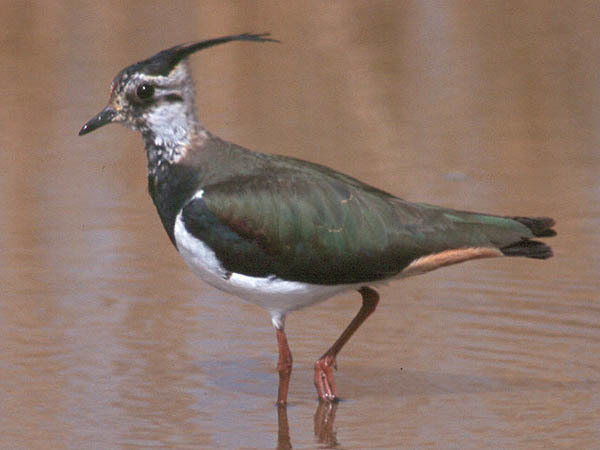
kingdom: Animalia
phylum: Chordata
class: Aves
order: Charadriiformes
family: Charadriidae
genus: Vanellus
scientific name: Vanellus vanellus
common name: Northern lapwing
